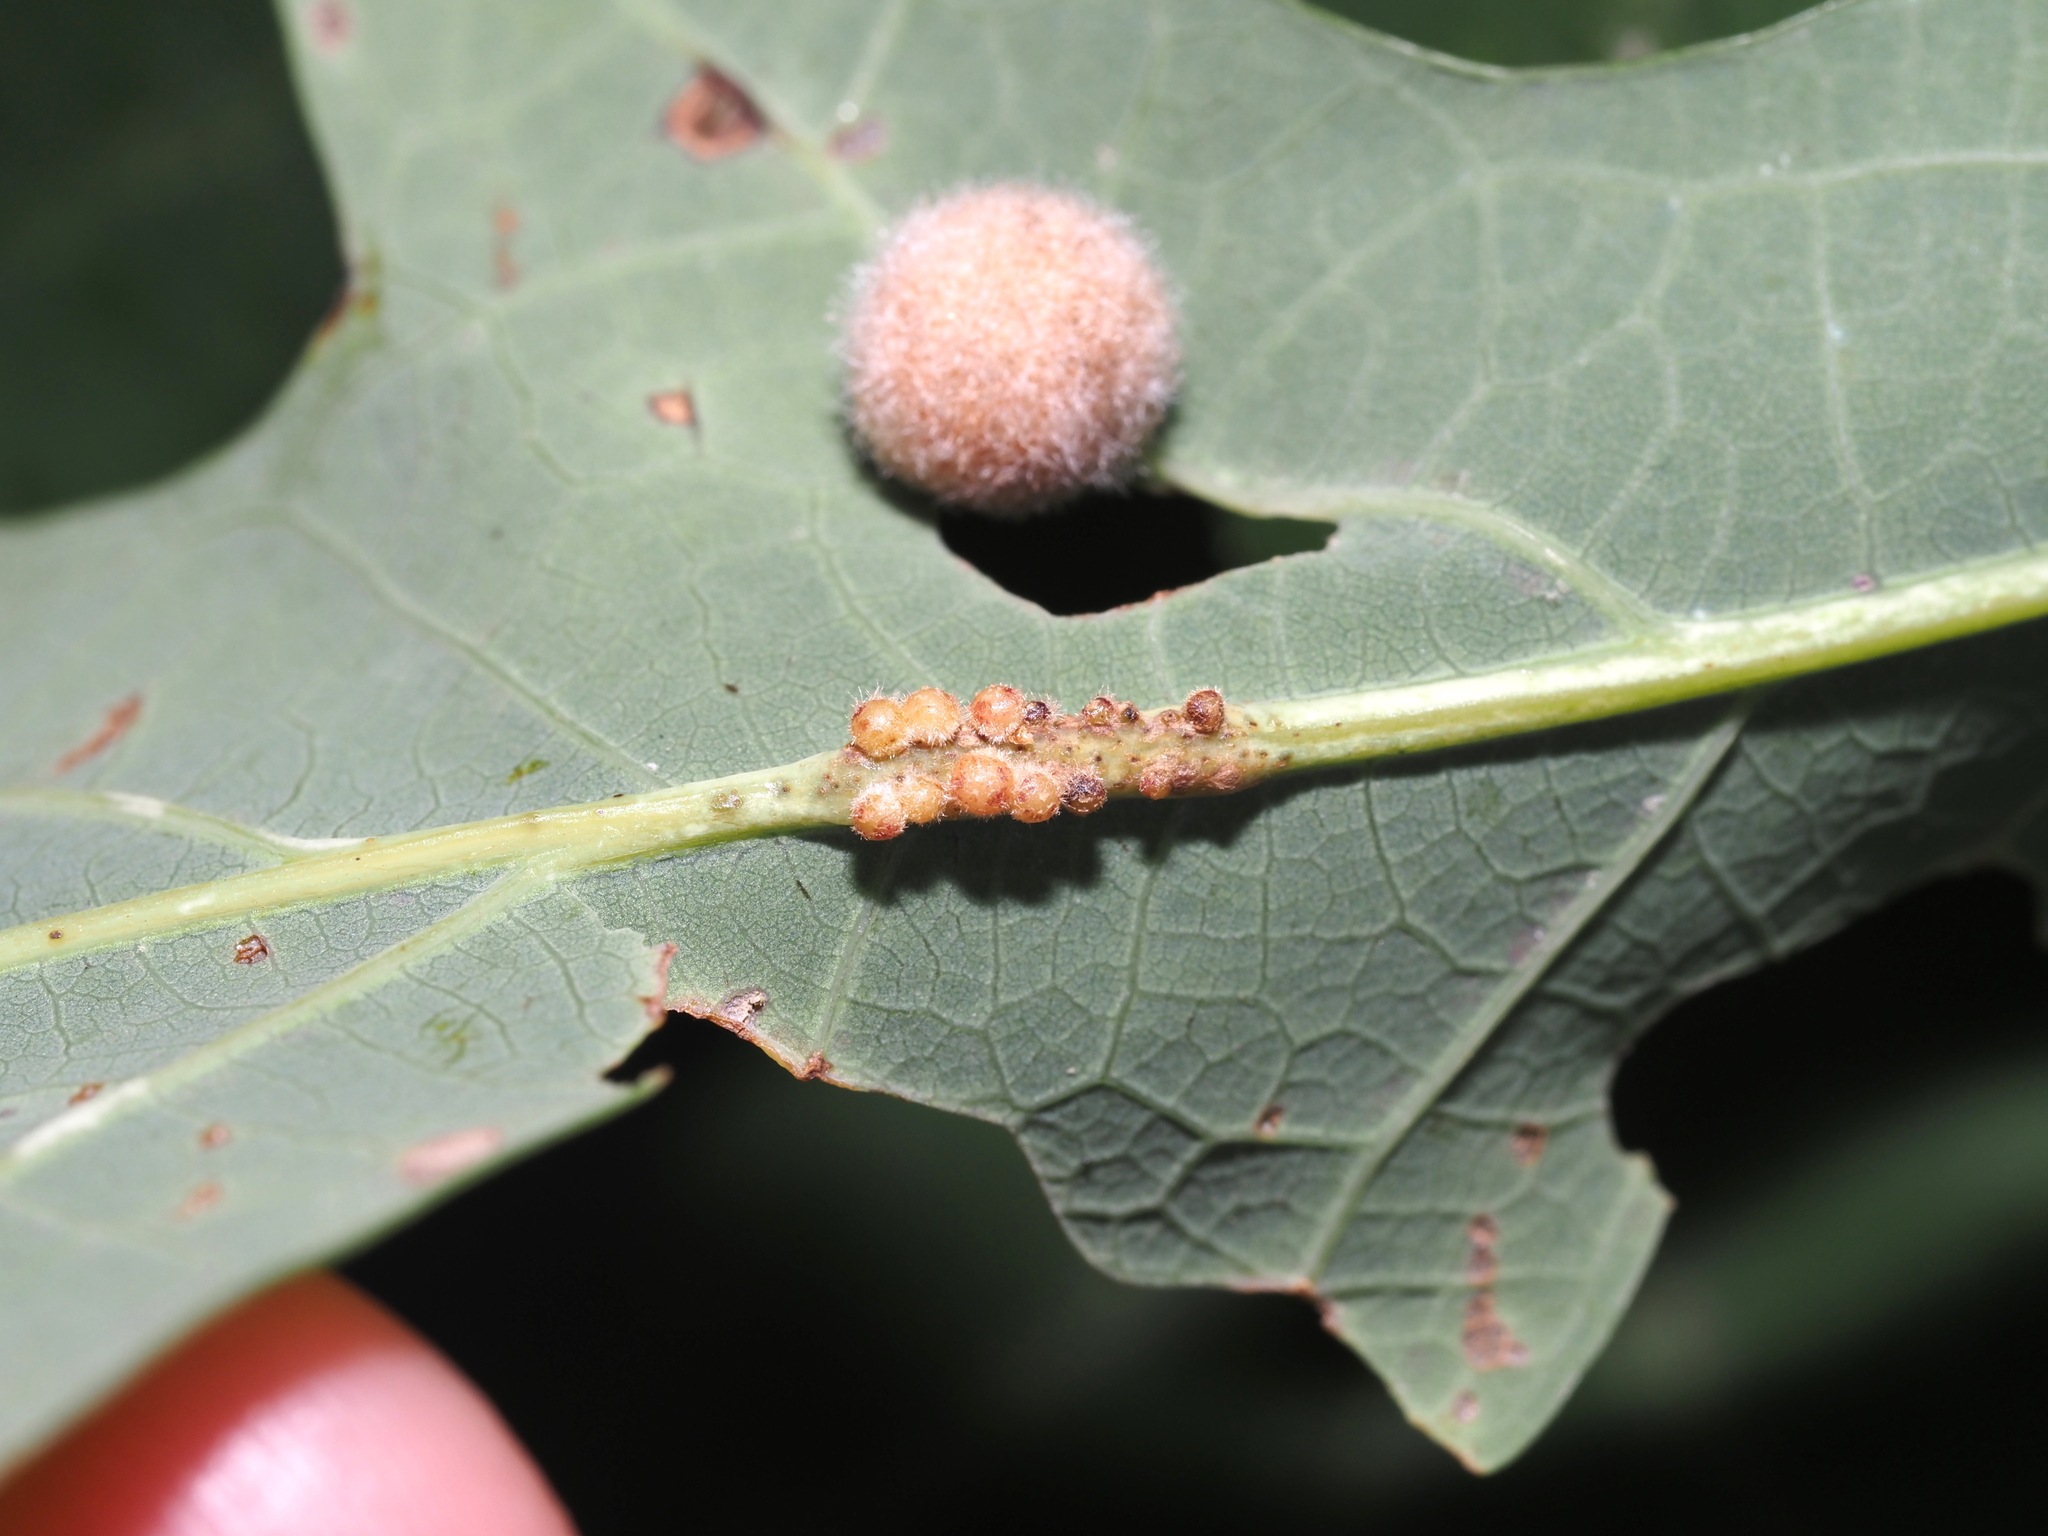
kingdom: Animalia
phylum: Arthropoda
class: Insecta
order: Hymenoptera
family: Cynipidae
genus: Andricus
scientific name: Andricus
